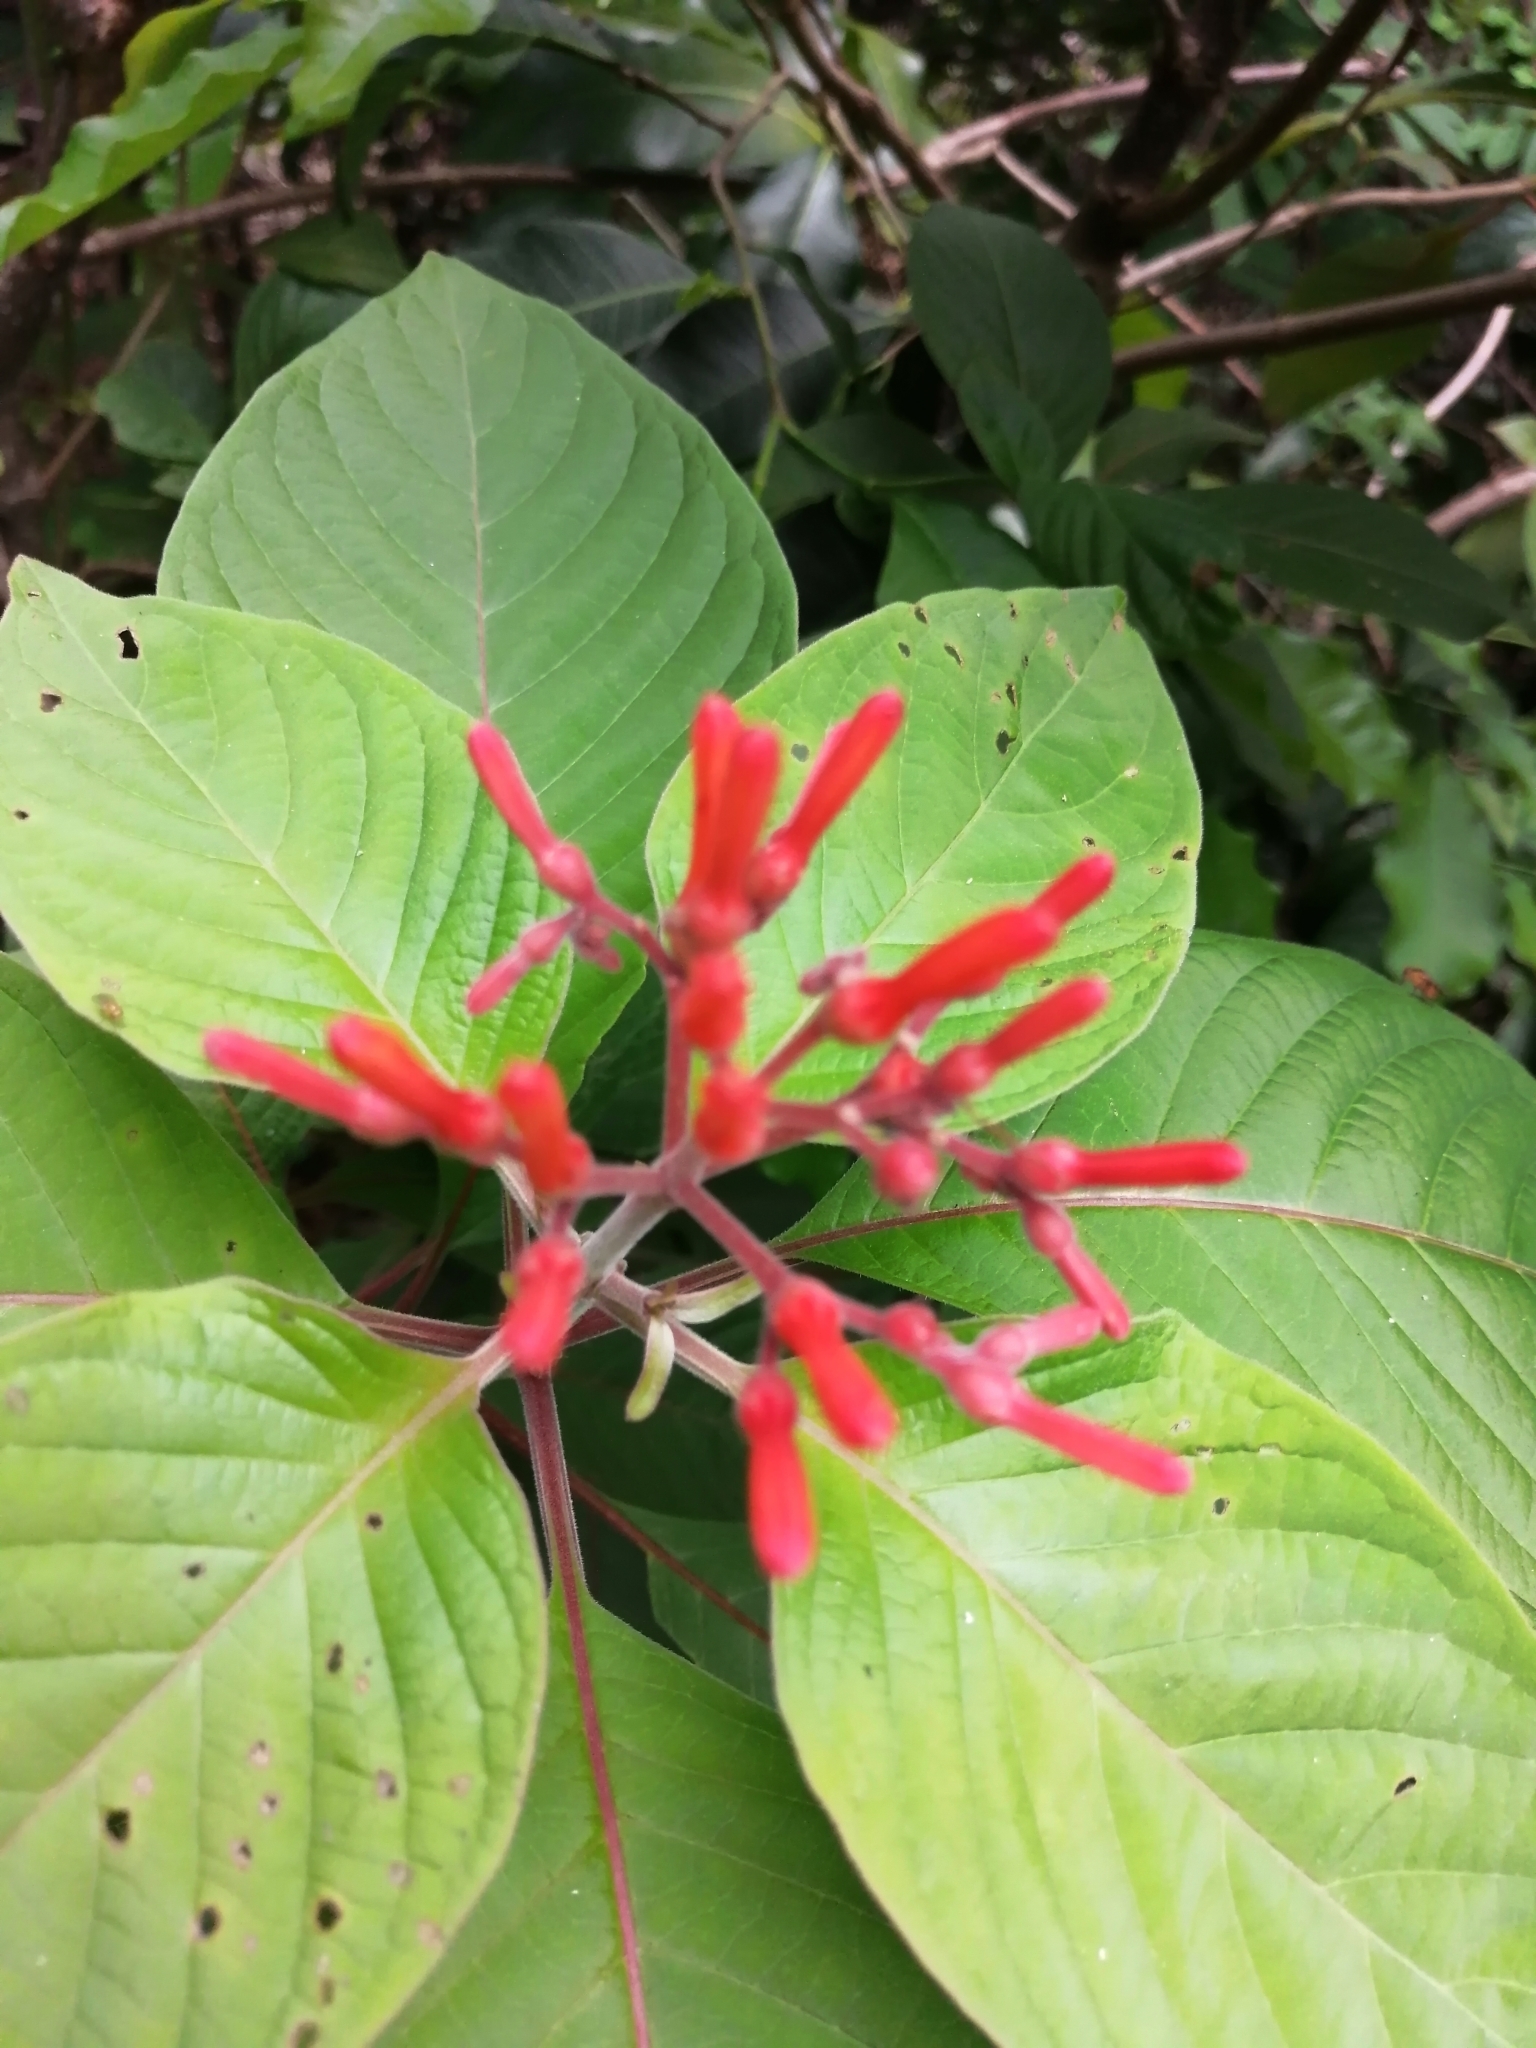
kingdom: Plantae
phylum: Tracheophyta
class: Magnoliopsida
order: Gentianales
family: Rubiaceae
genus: Hamelia
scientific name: Hamelia patens
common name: Redhead
